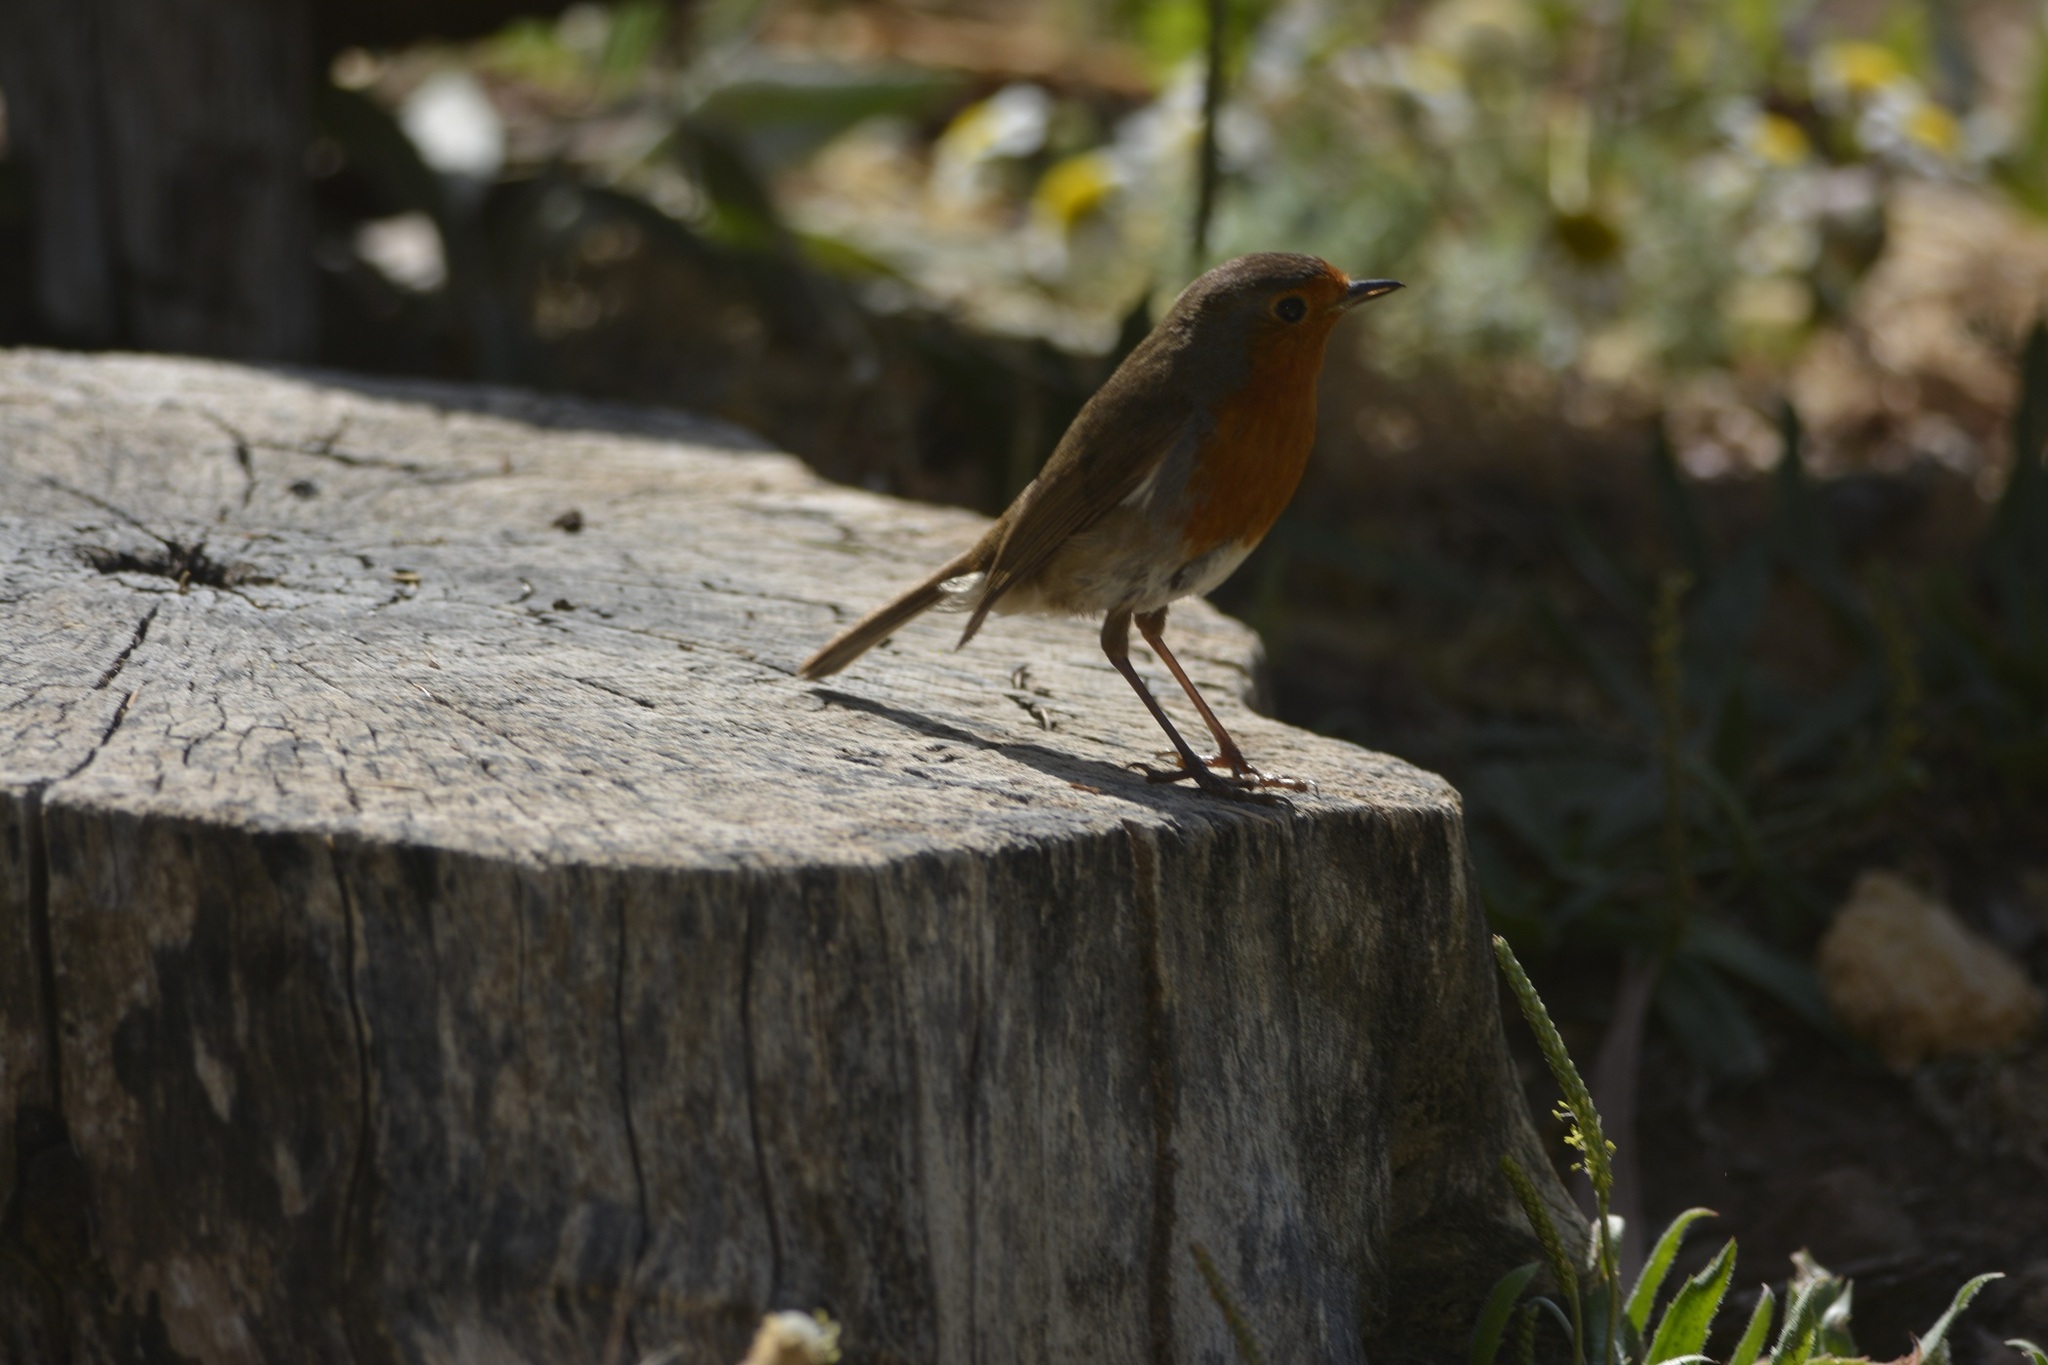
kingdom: Animalia
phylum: Chordata
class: Aves
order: Passeriformes
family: Muscicapidae
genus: Erithacus
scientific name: Erithacus rubecula
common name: European robin
